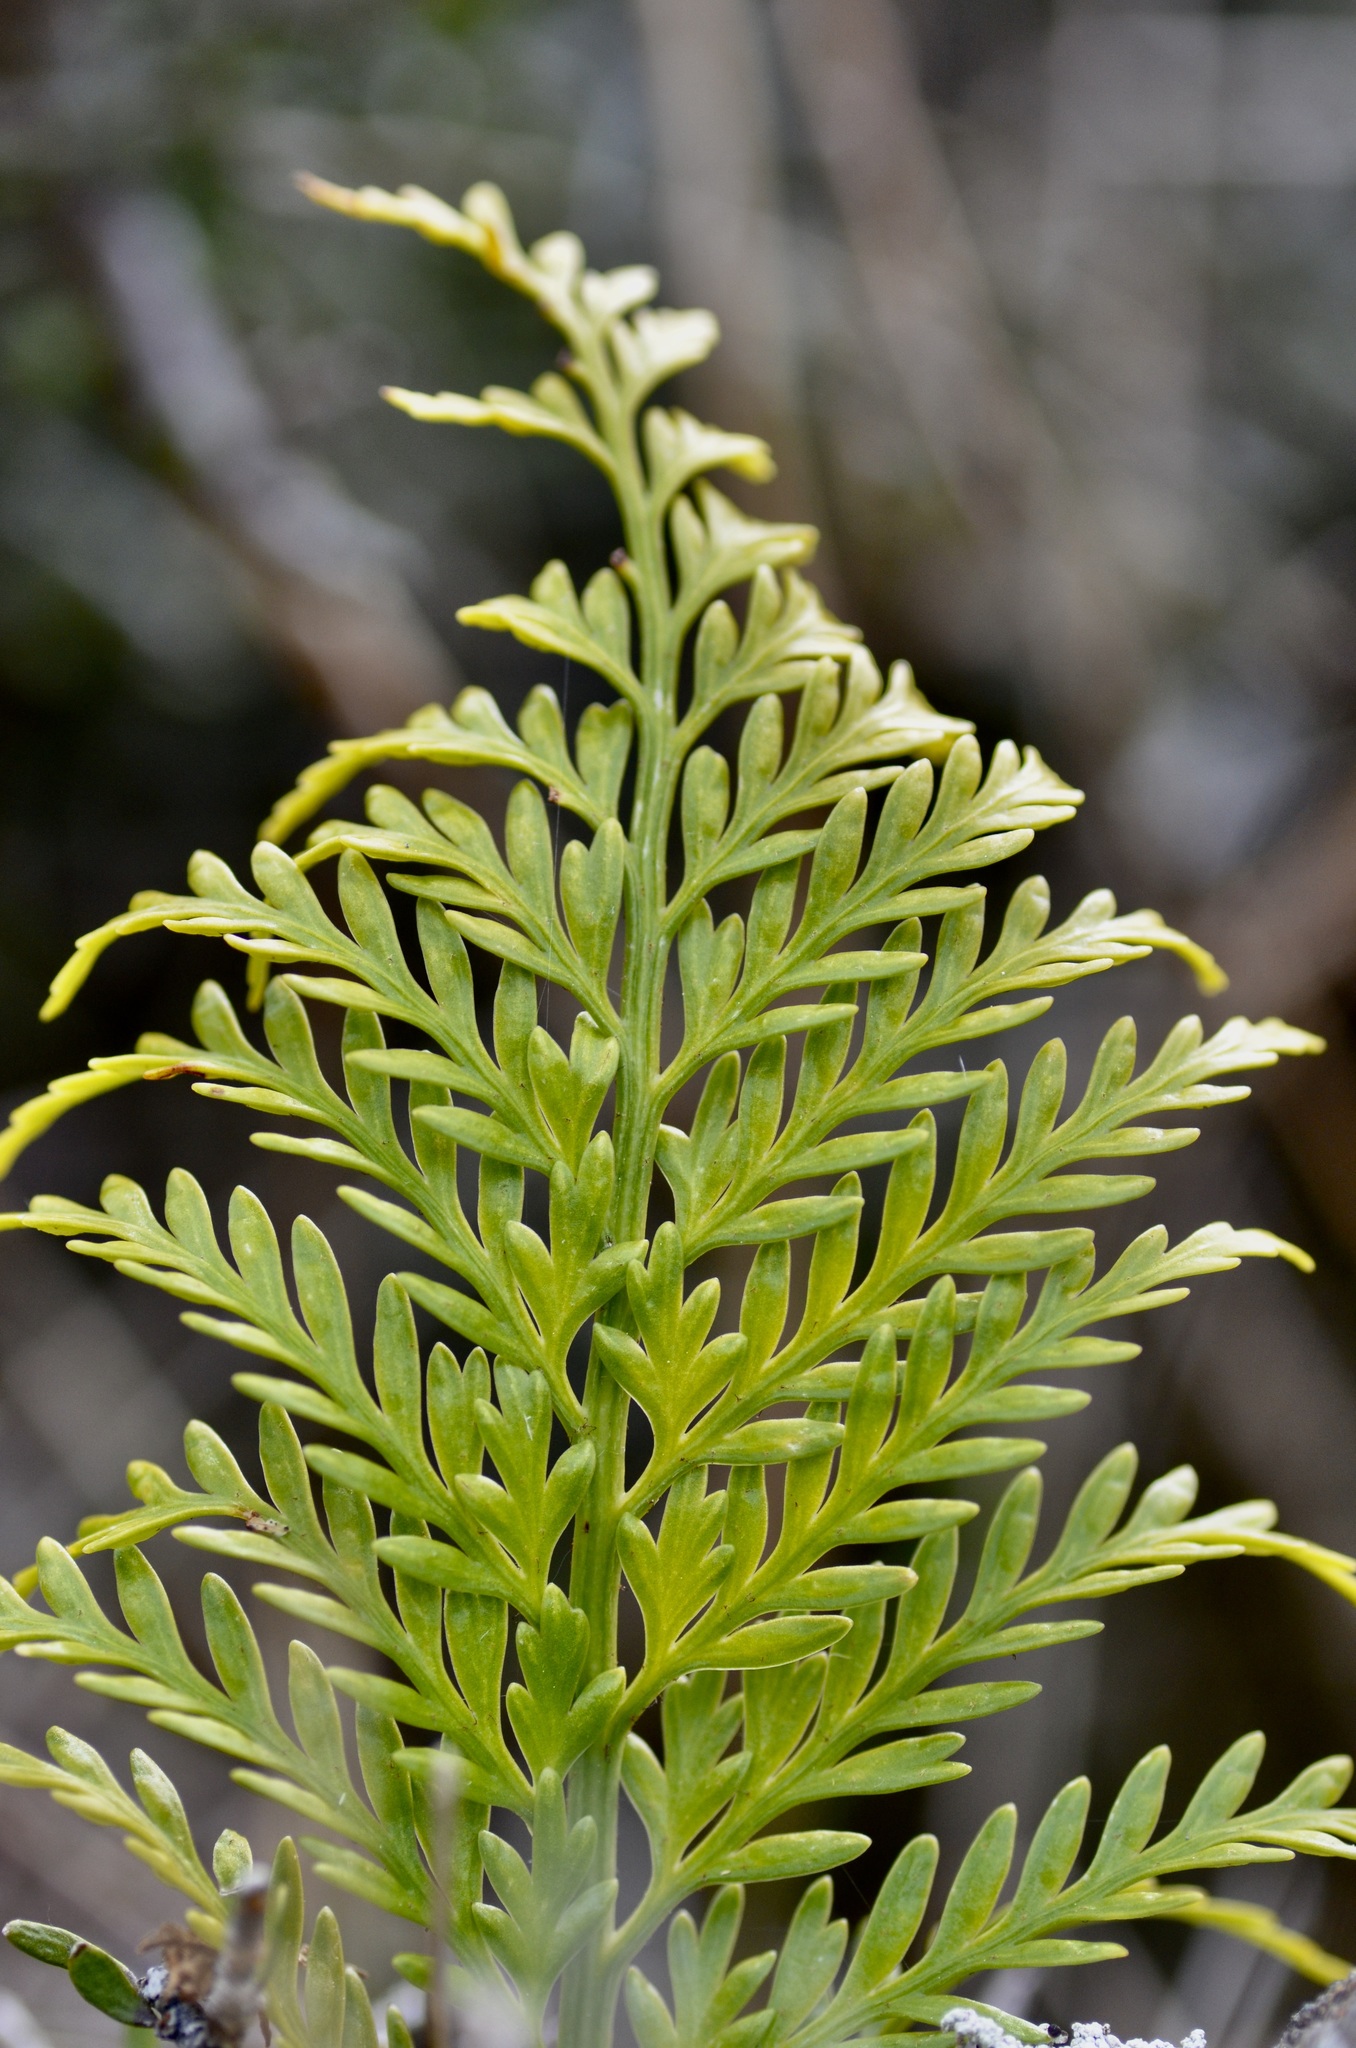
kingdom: Plantae
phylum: Tracheophyta
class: Polypodiopsida
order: Polypodiales
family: Aspleniaceae
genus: Asplenium
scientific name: Asplenium appendiculatum
